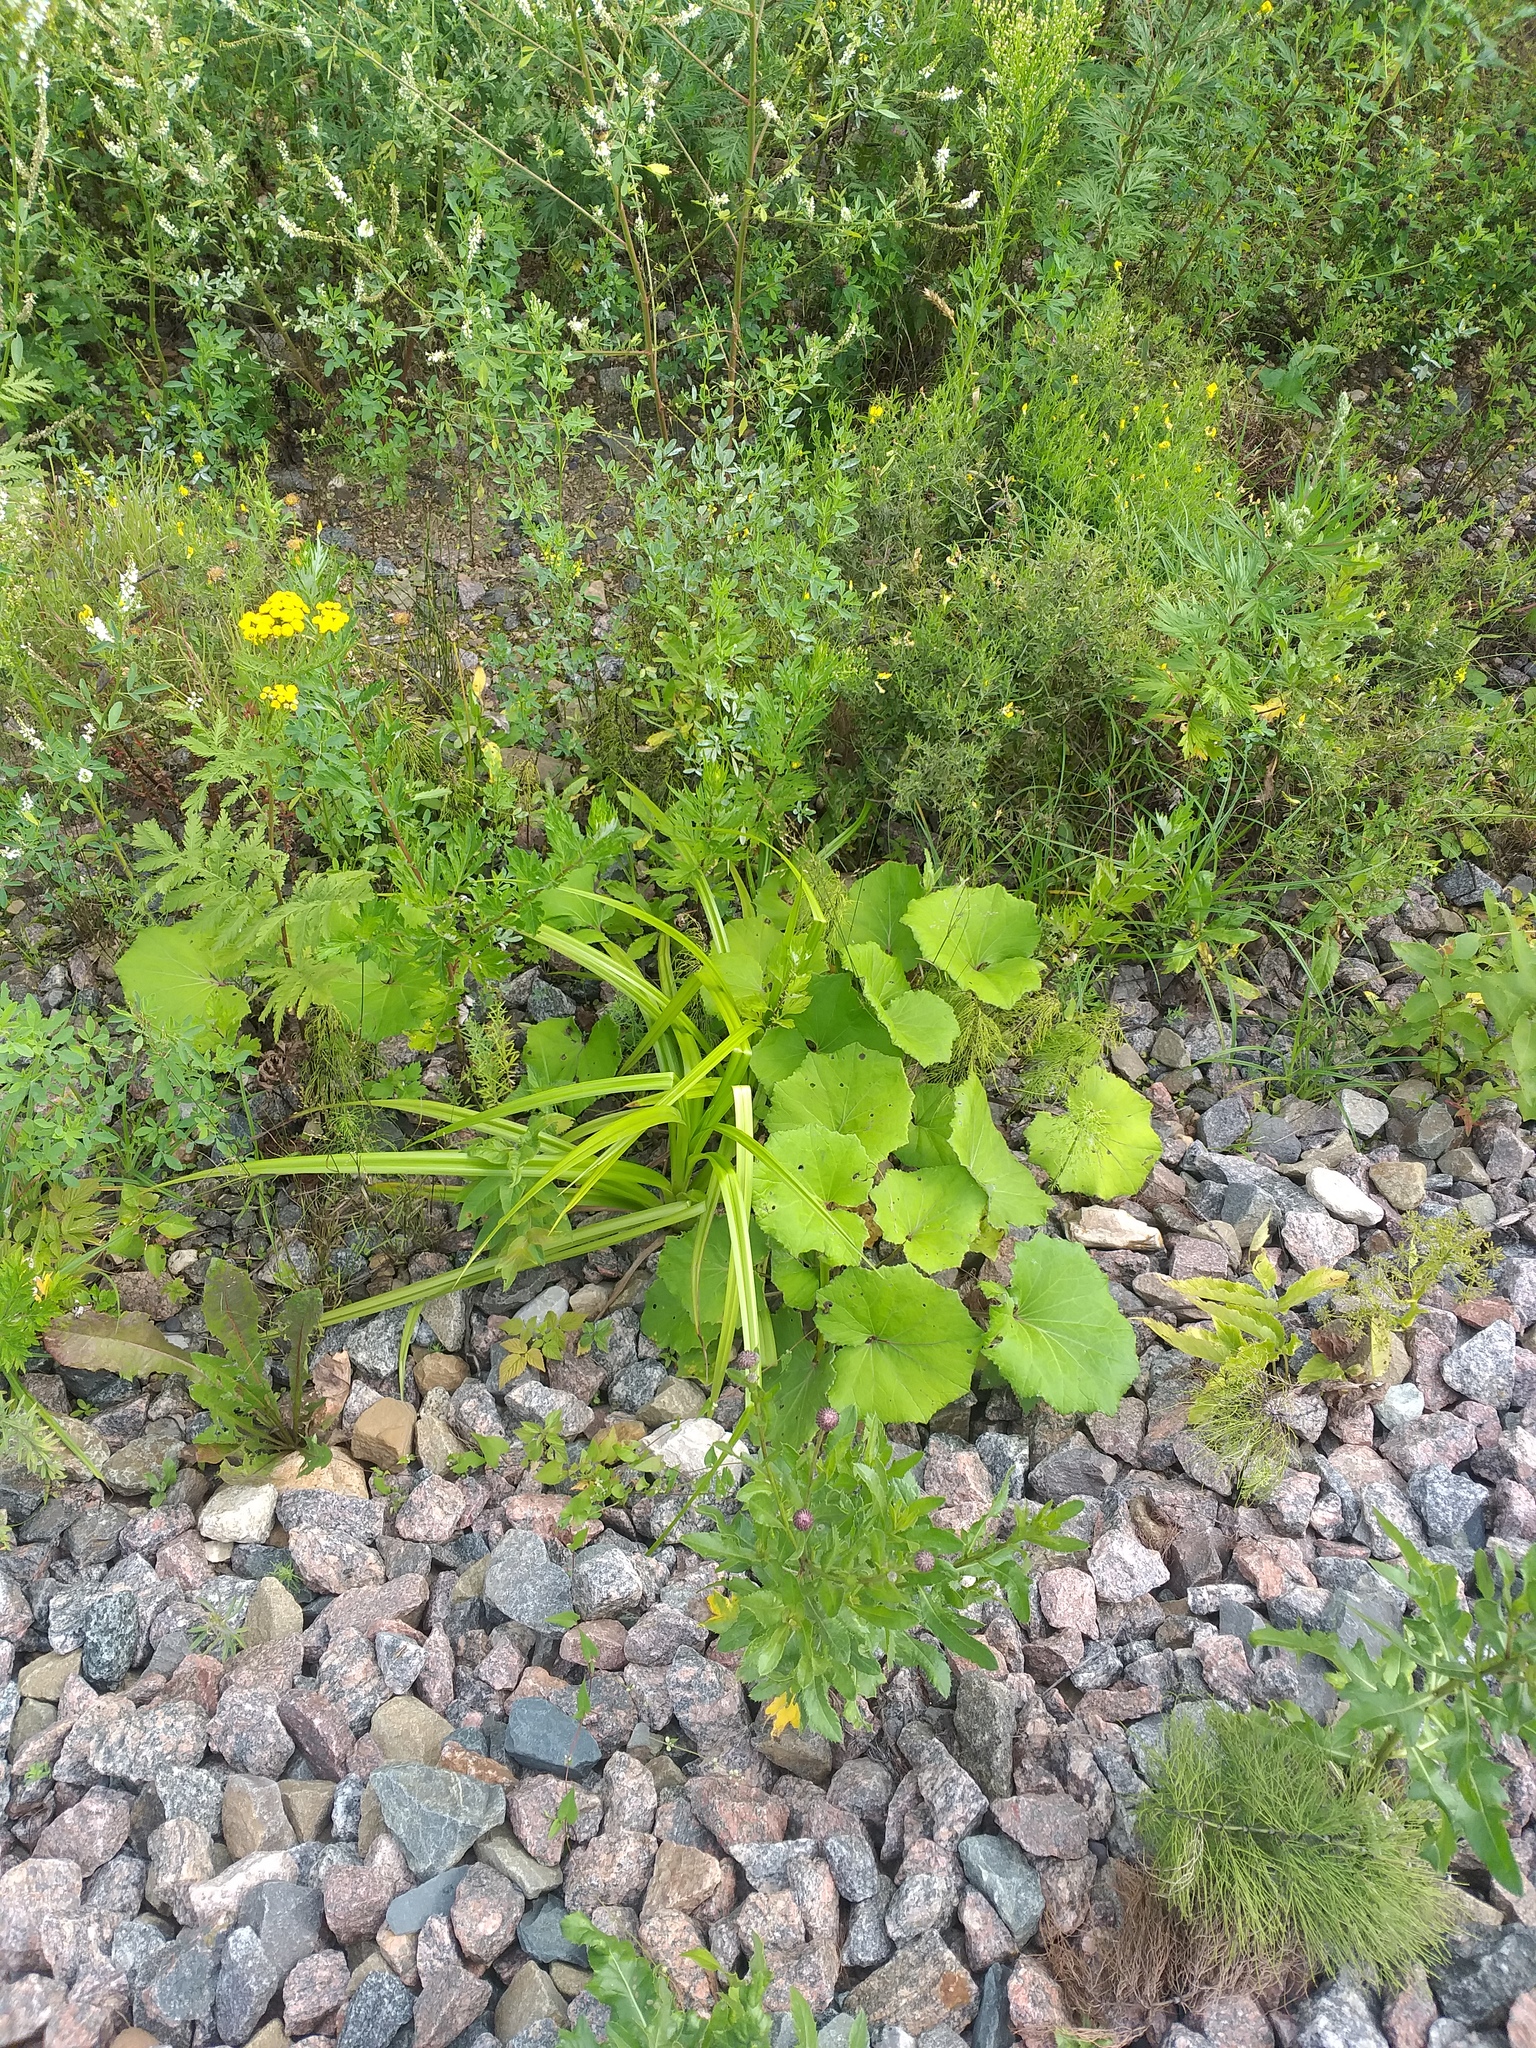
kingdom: Plantae
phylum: Tracheophyta
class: Magnoliopsida
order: Asterales
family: Asteraceae
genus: Tussilago
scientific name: Tussilago farfara
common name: Coltsfoot
